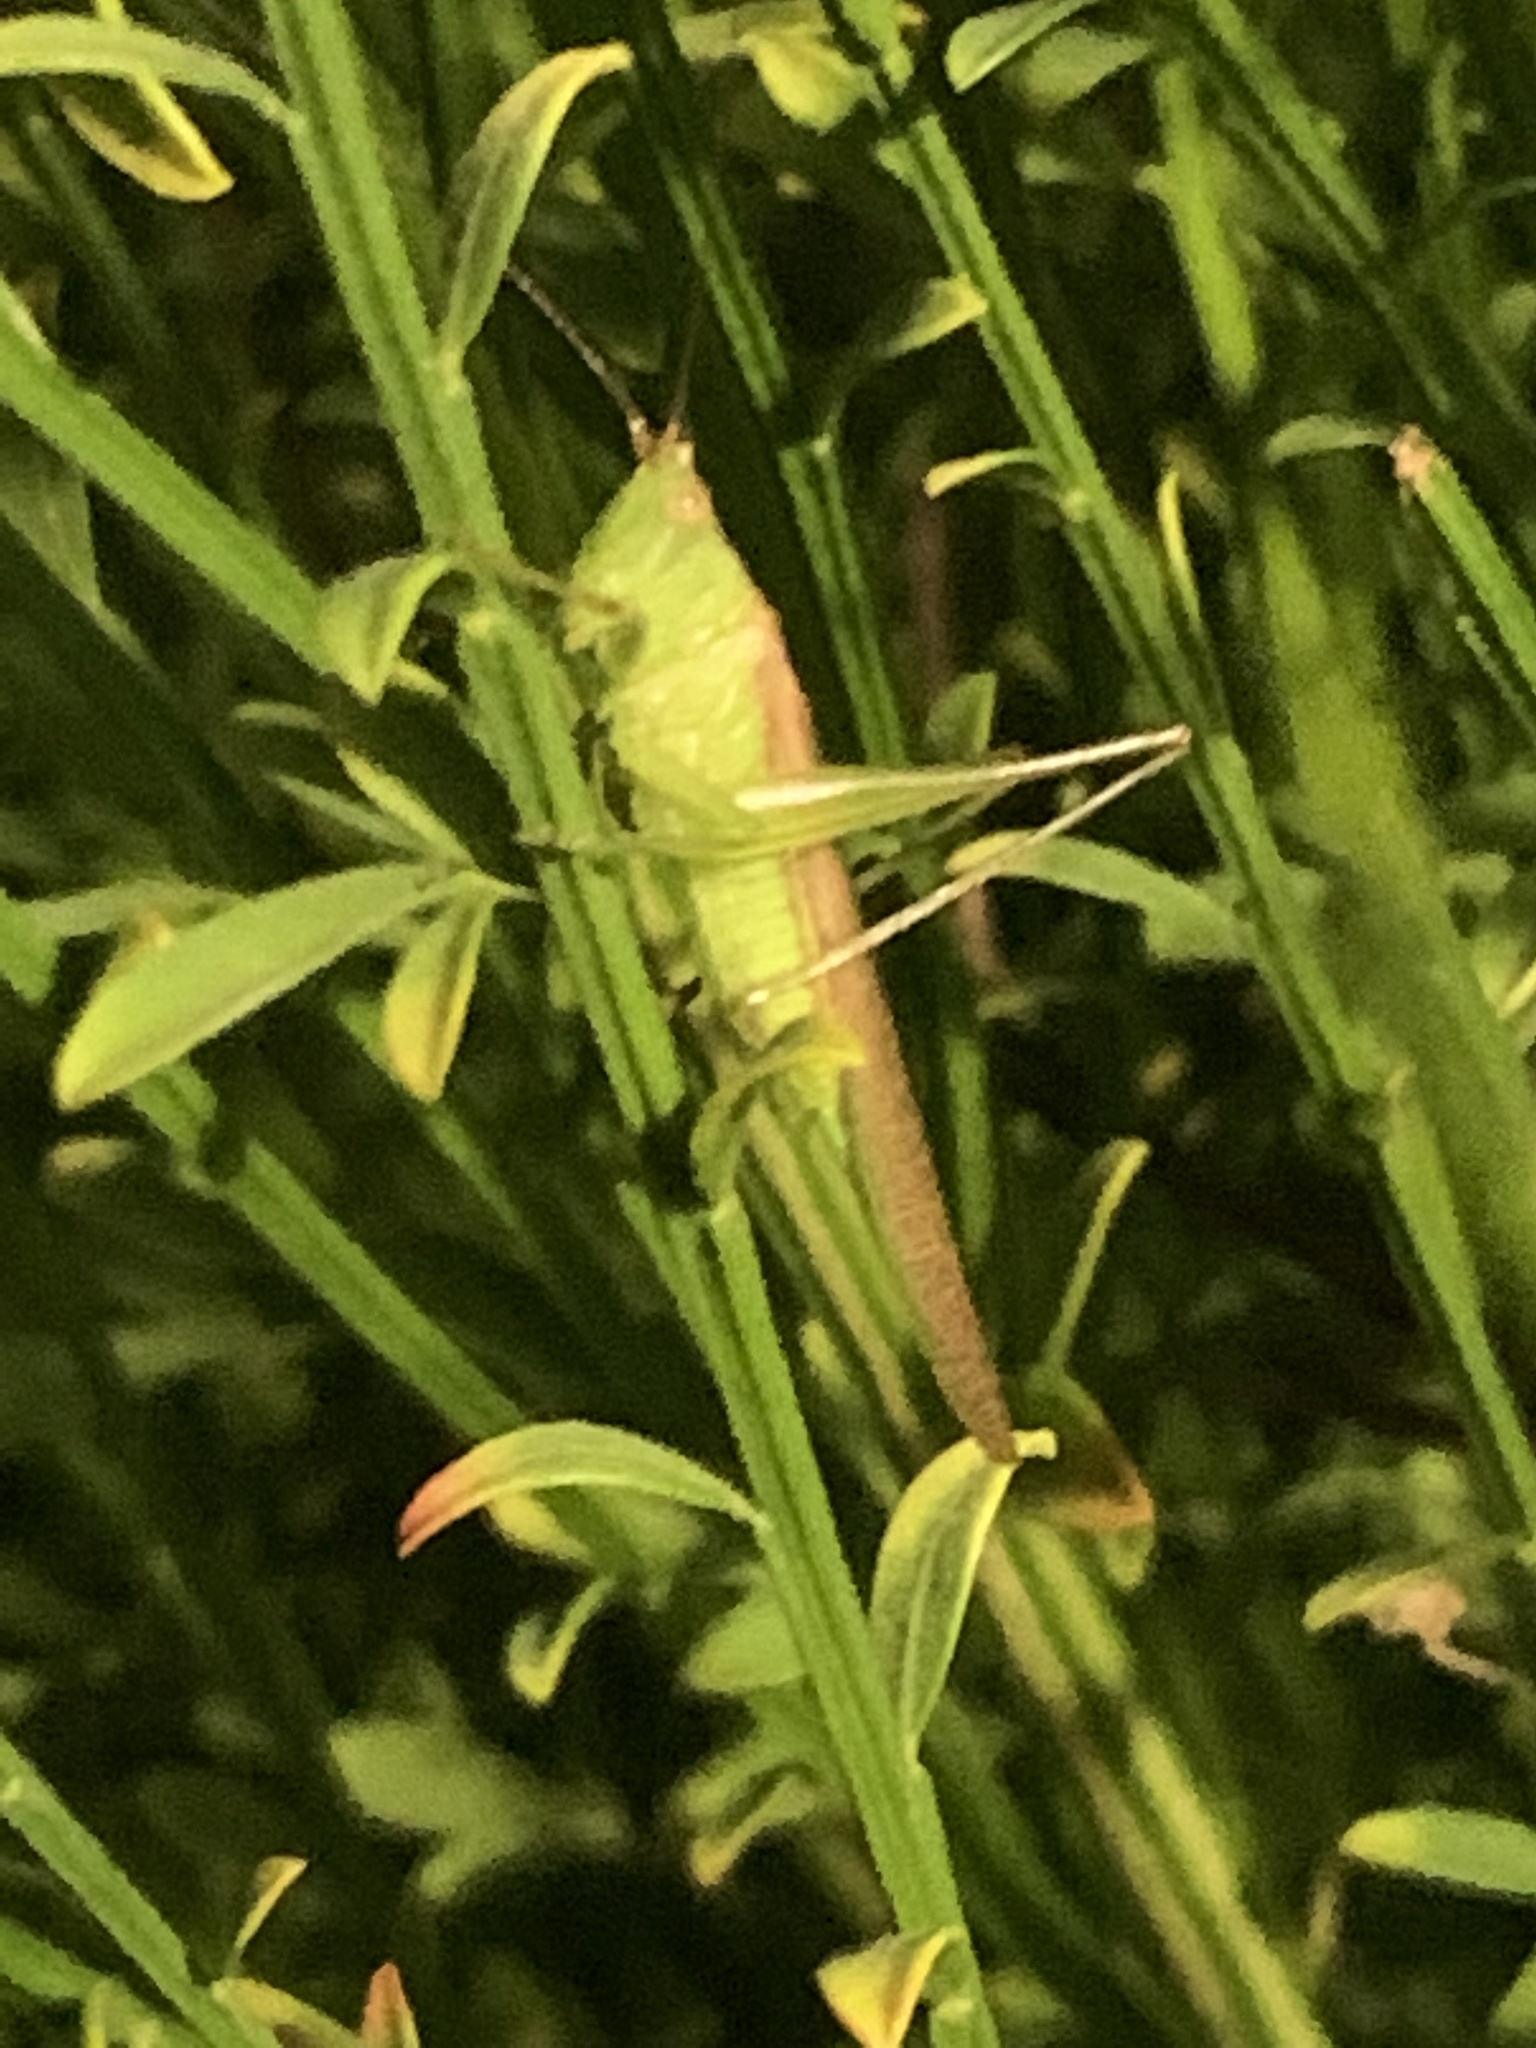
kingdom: Animalia
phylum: Arthropoda
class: Insecta
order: Orthoptera
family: Tettigoniidae
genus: Conocephalus
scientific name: Conocephalus fasciatus
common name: Slender meadow katydid
